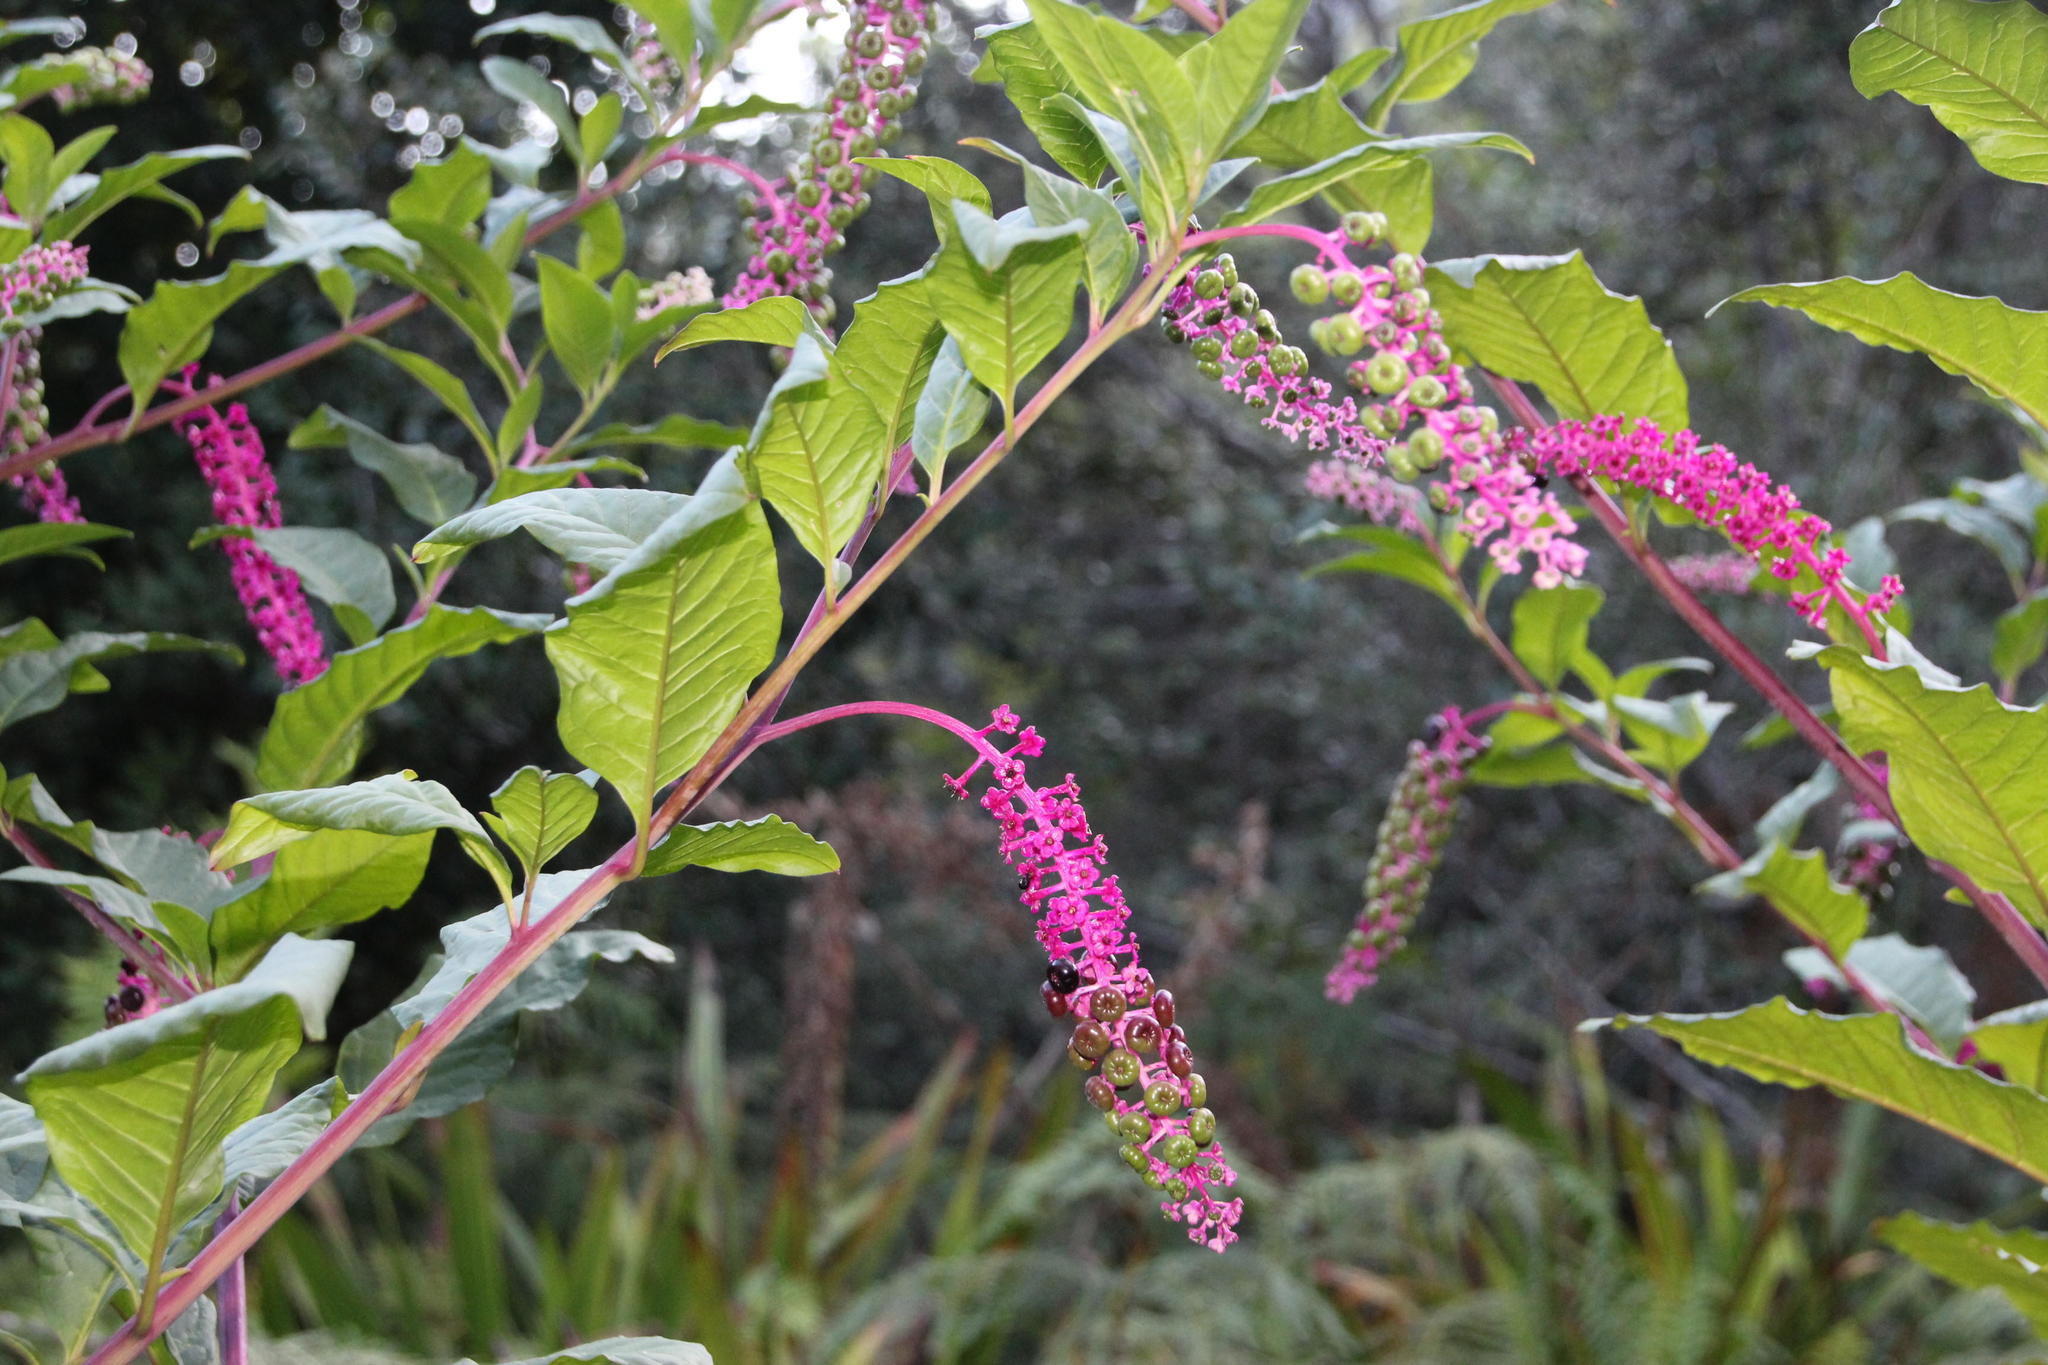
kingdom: Plantae
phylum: Tracheophyta
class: Magnoliopsida
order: Caryophyllales
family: Phytolaccaceae
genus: Phytolacca
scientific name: Phytolacca americana
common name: American pokeweed
